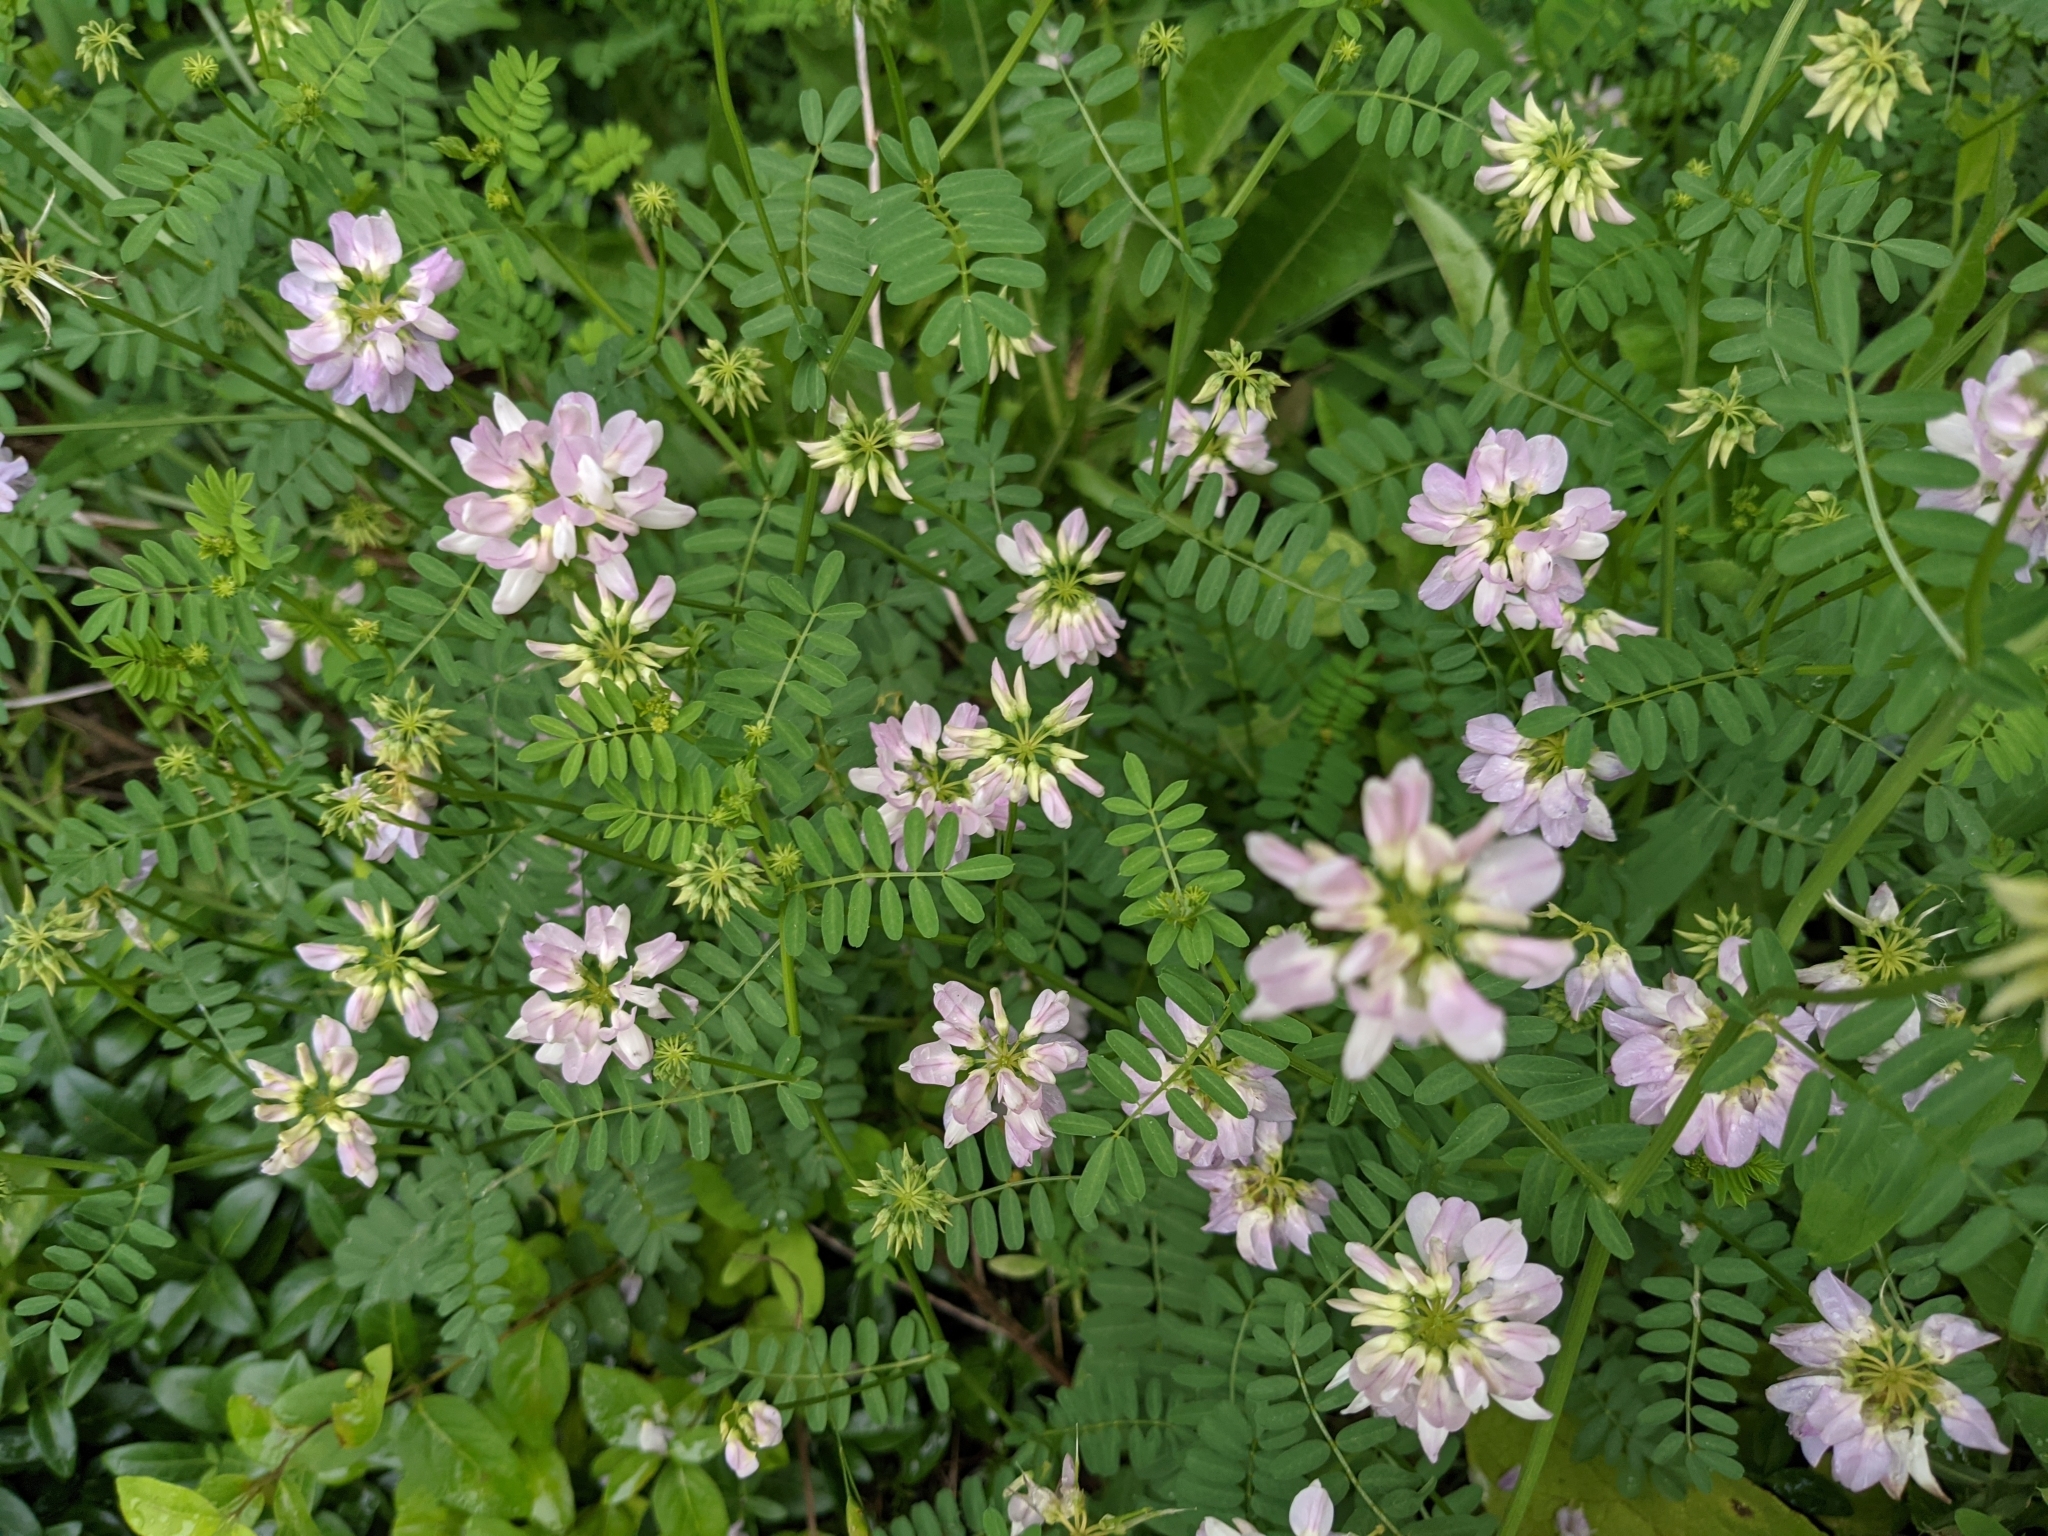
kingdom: Plantae
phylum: Tracheophyta
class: Magnoliopsida
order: Fabales
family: Fabaceae
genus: Coronilla
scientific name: Coronilla varia
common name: Crownvetch
